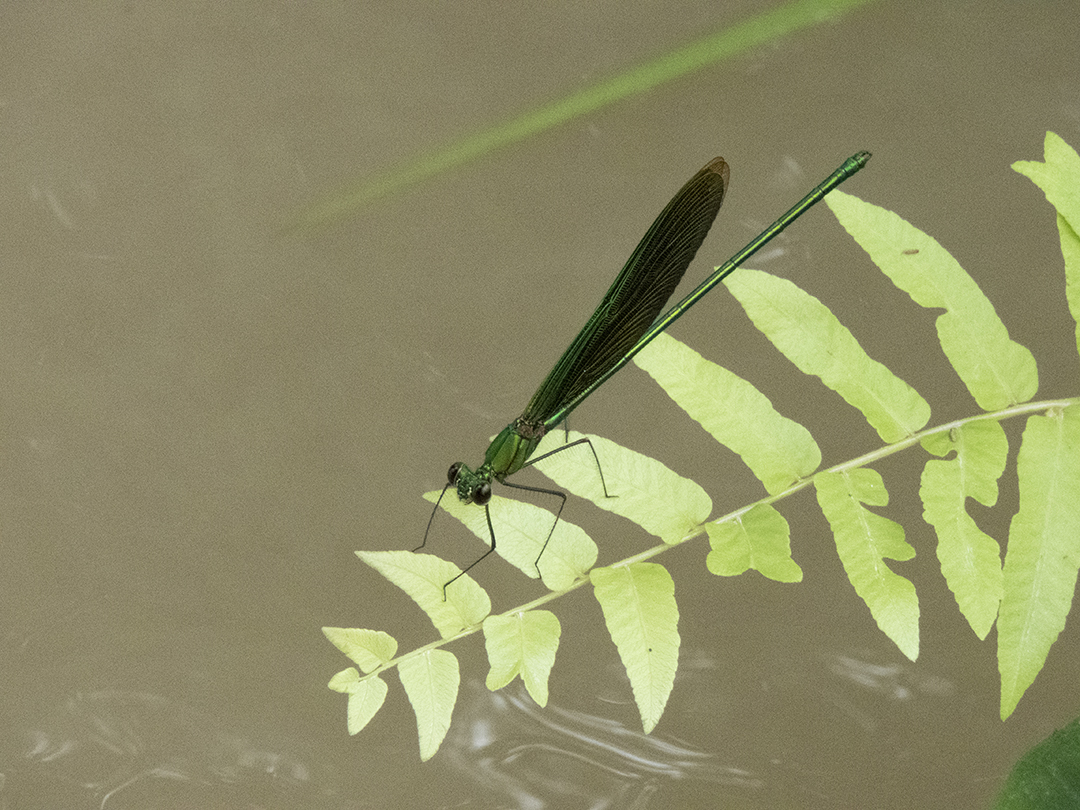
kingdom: Animalia
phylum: Arthropoda
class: Insecta
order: Odonata
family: Calopterygidae
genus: Neurobasis
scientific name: Neurobasis chinensis
